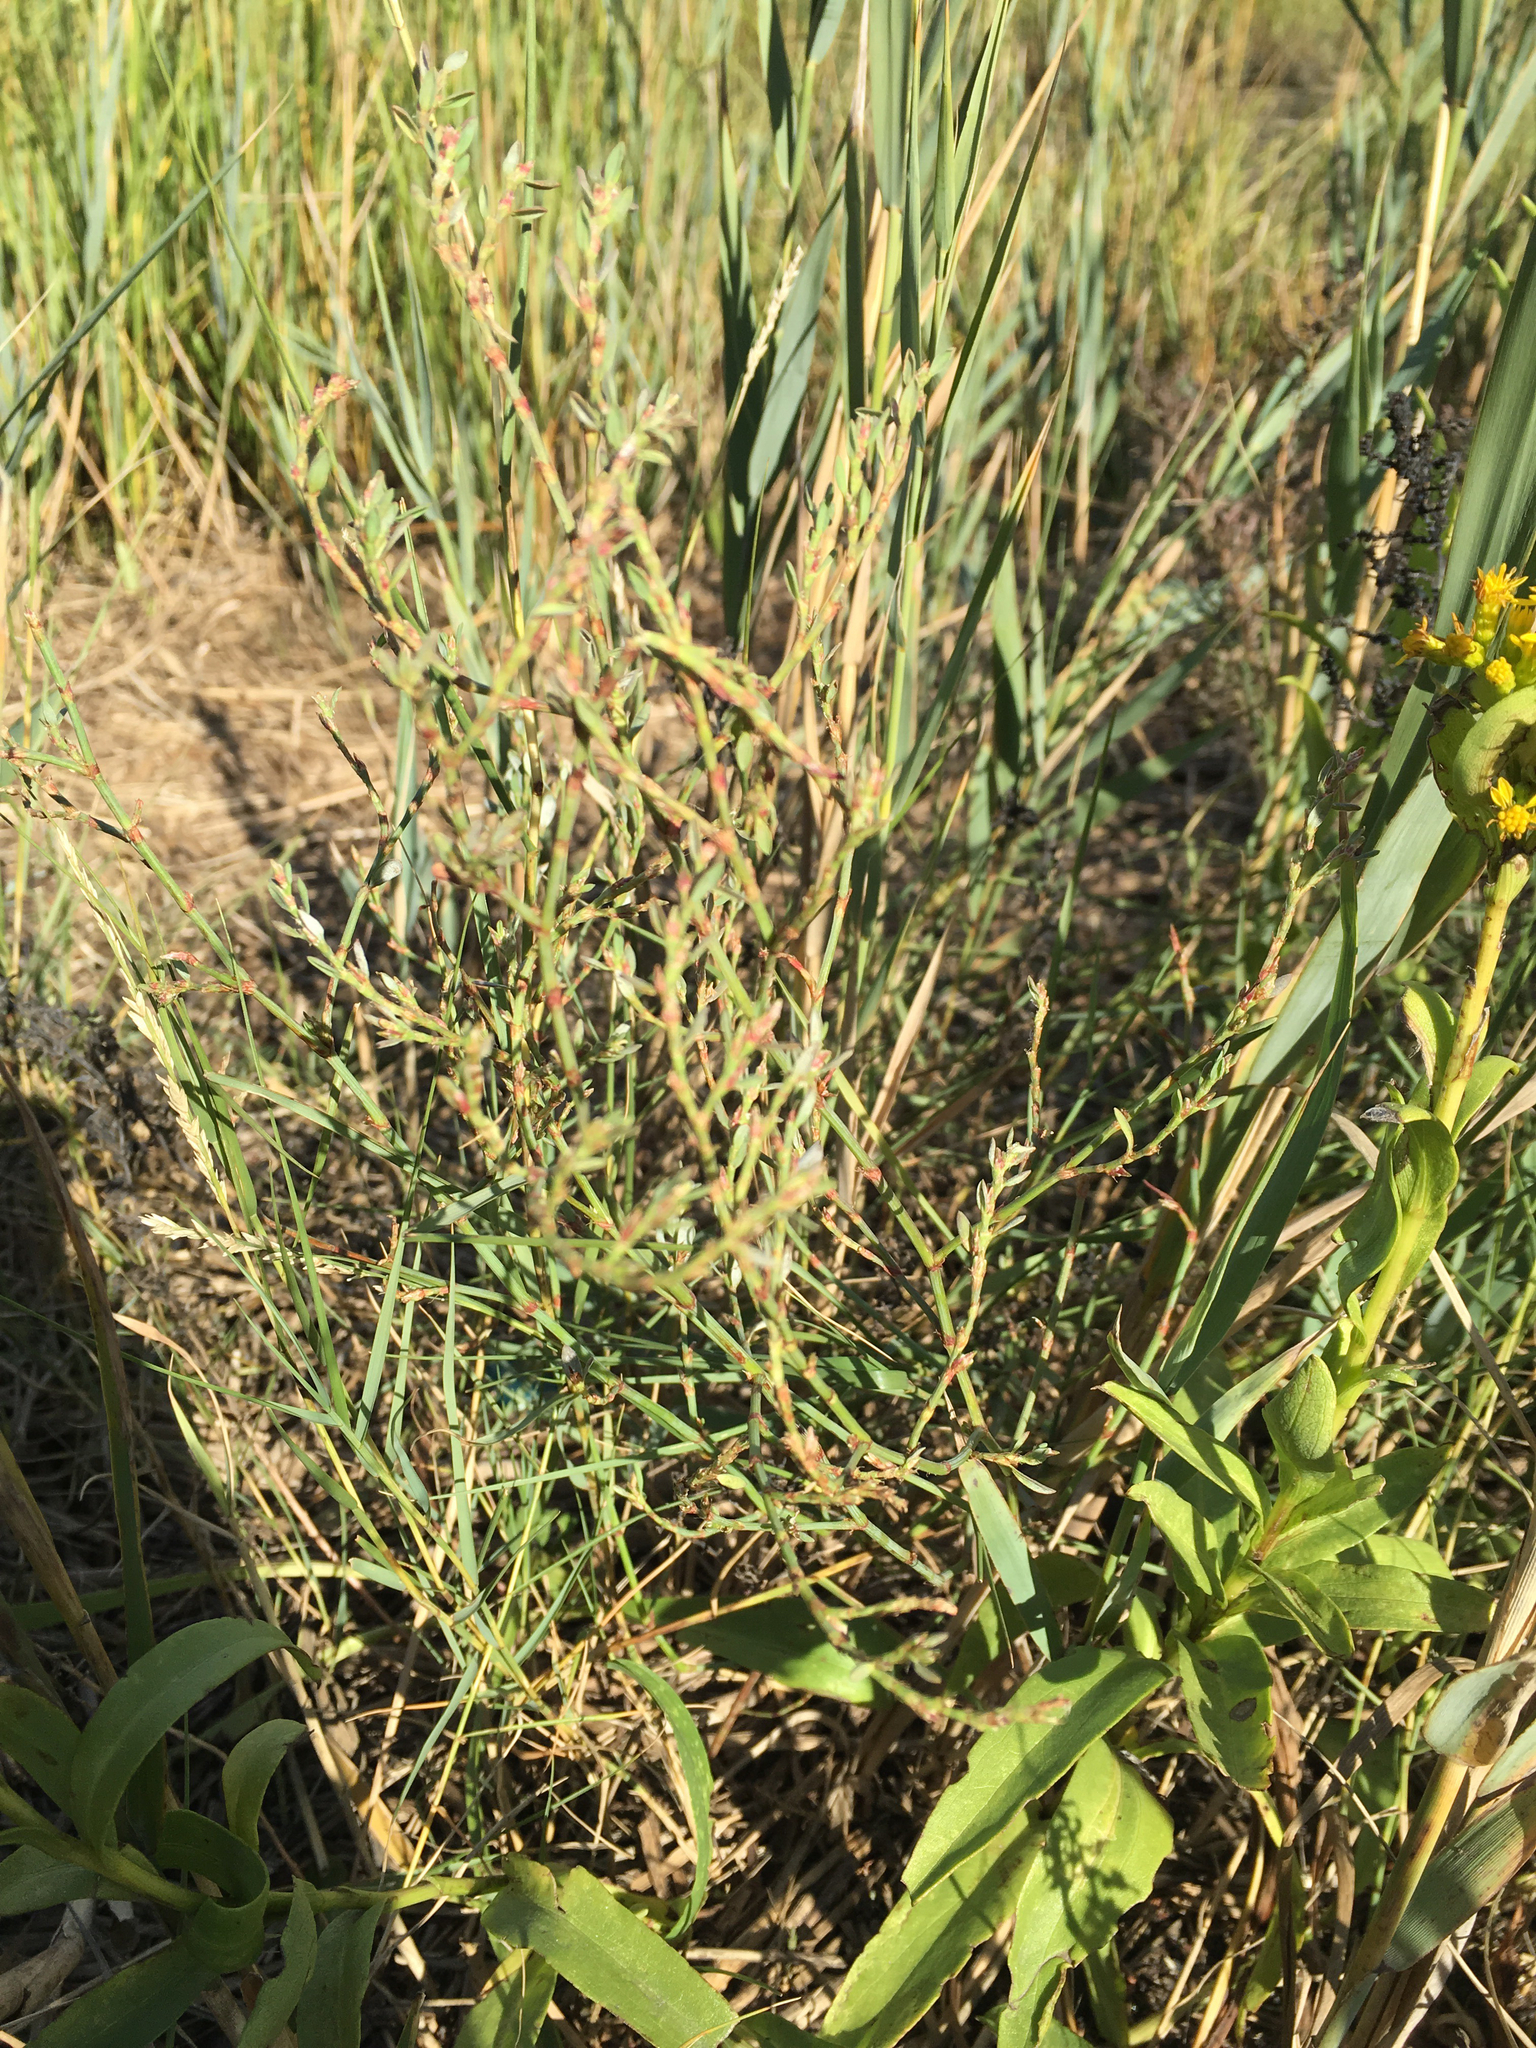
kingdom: Plantae
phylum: Tracheophyta
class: Magnoliopsida
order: Caryophyllales
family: Polygonaceae
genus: Polygonum
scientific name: Polygonum ramosissimum
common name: Bushy knotweed
